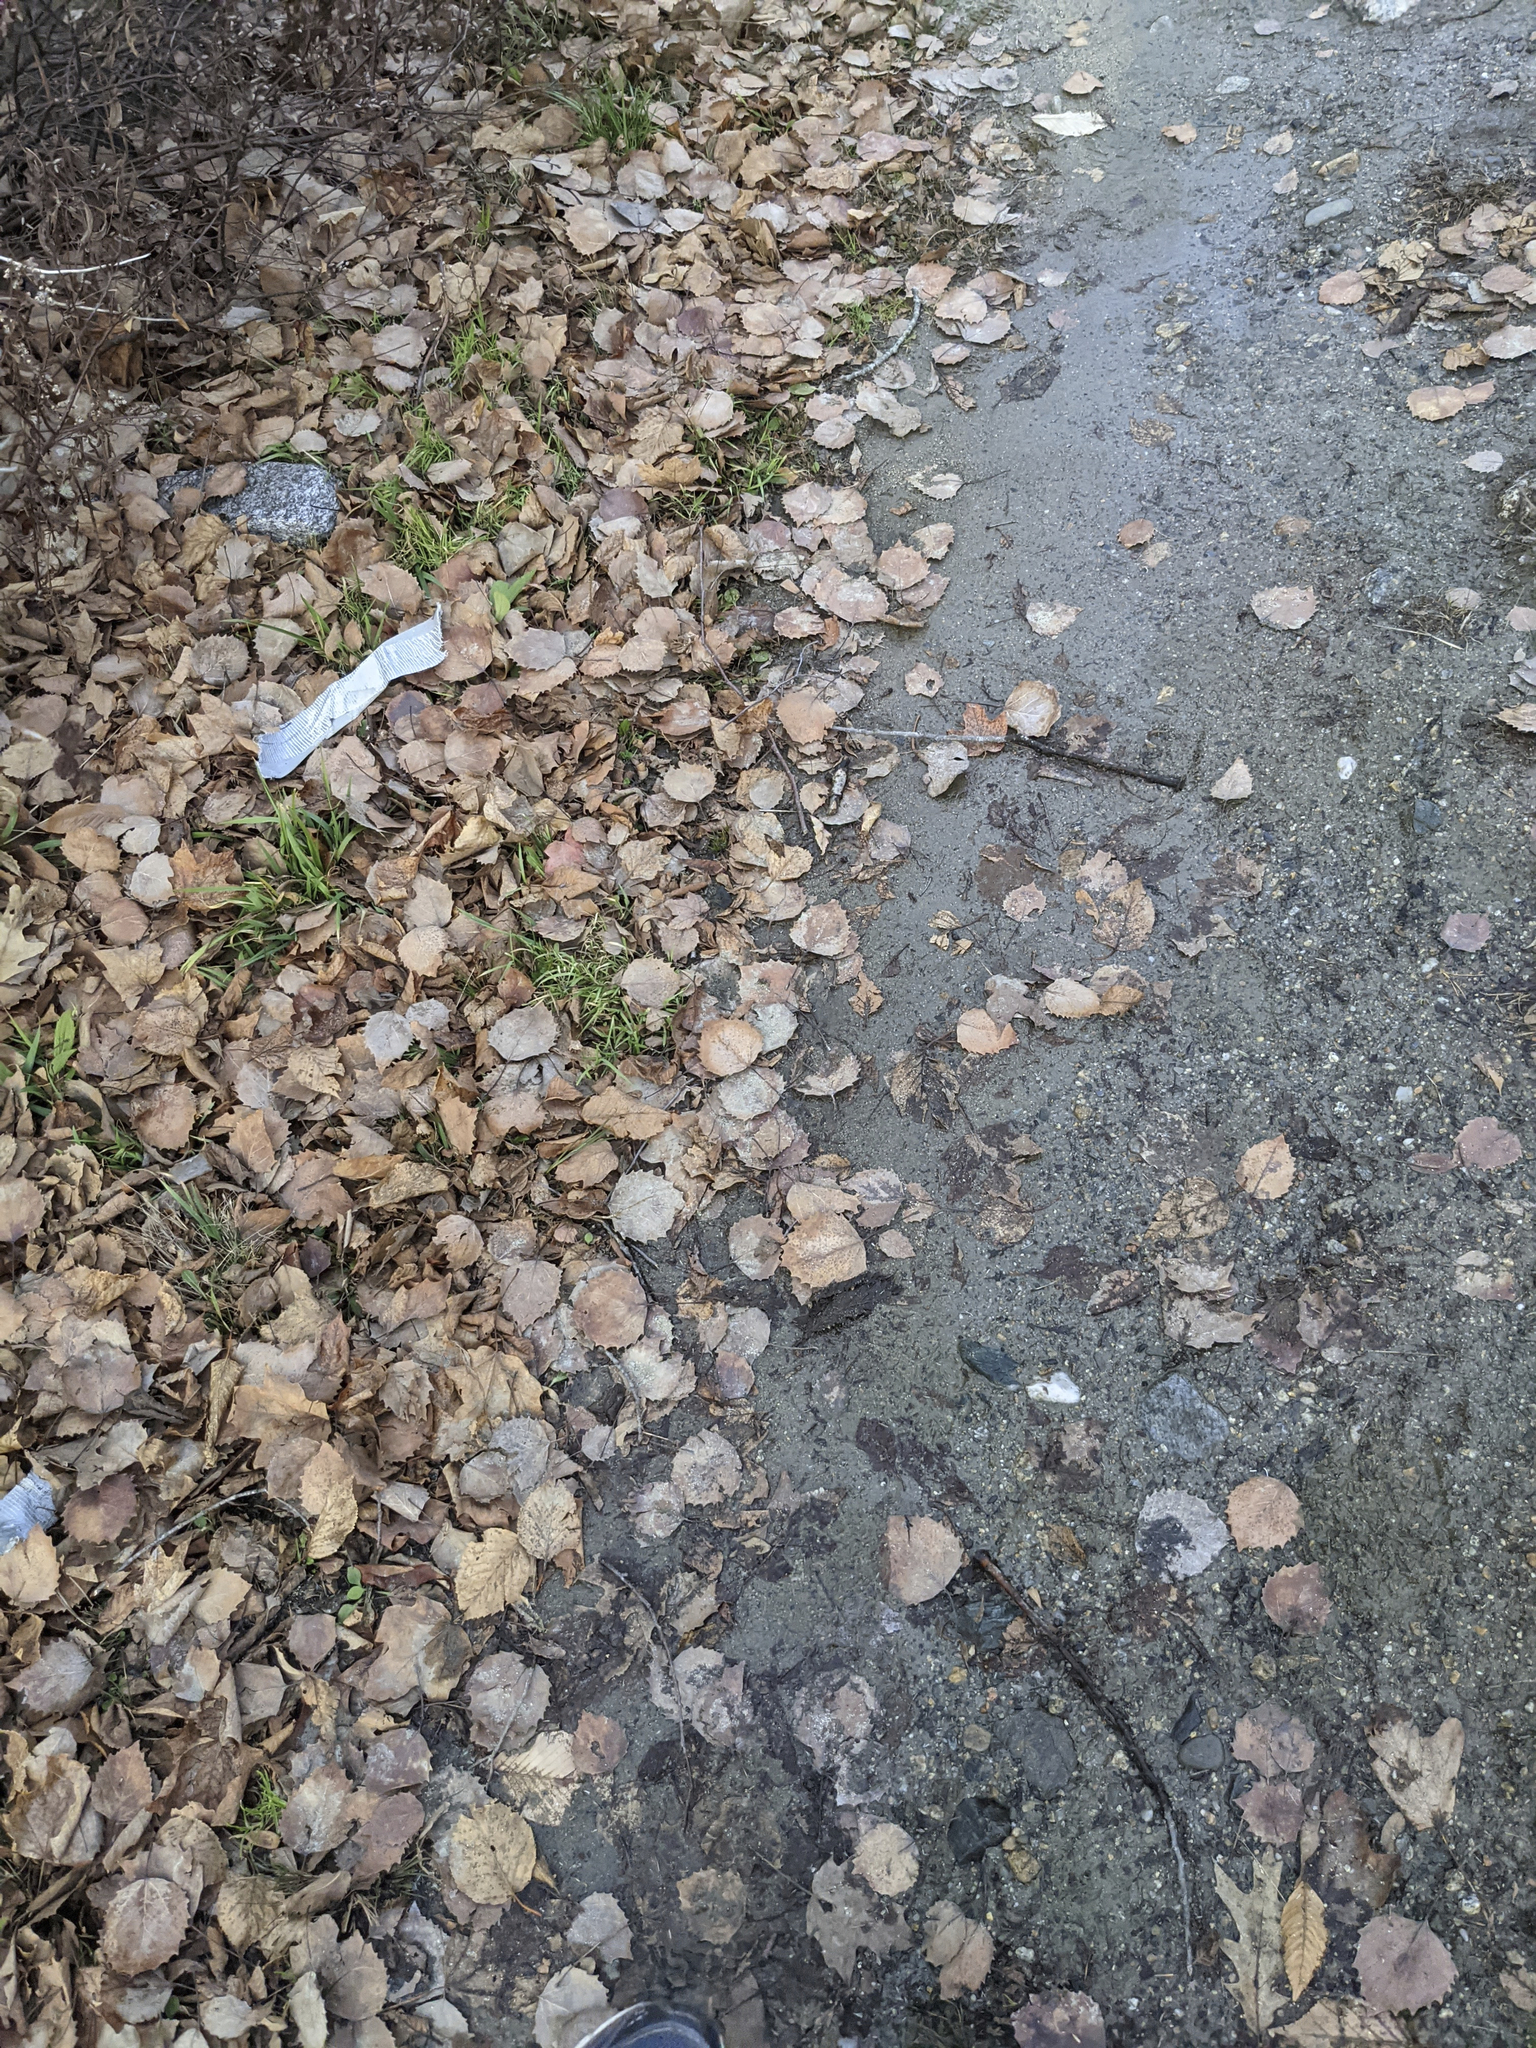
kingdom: Plantae
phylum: Tracheophyta
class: Magnoliopsida
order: Malpighiales
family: Salicaceae
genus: Populus
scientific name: Populus grandidentata
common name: Bigtooth aspen
